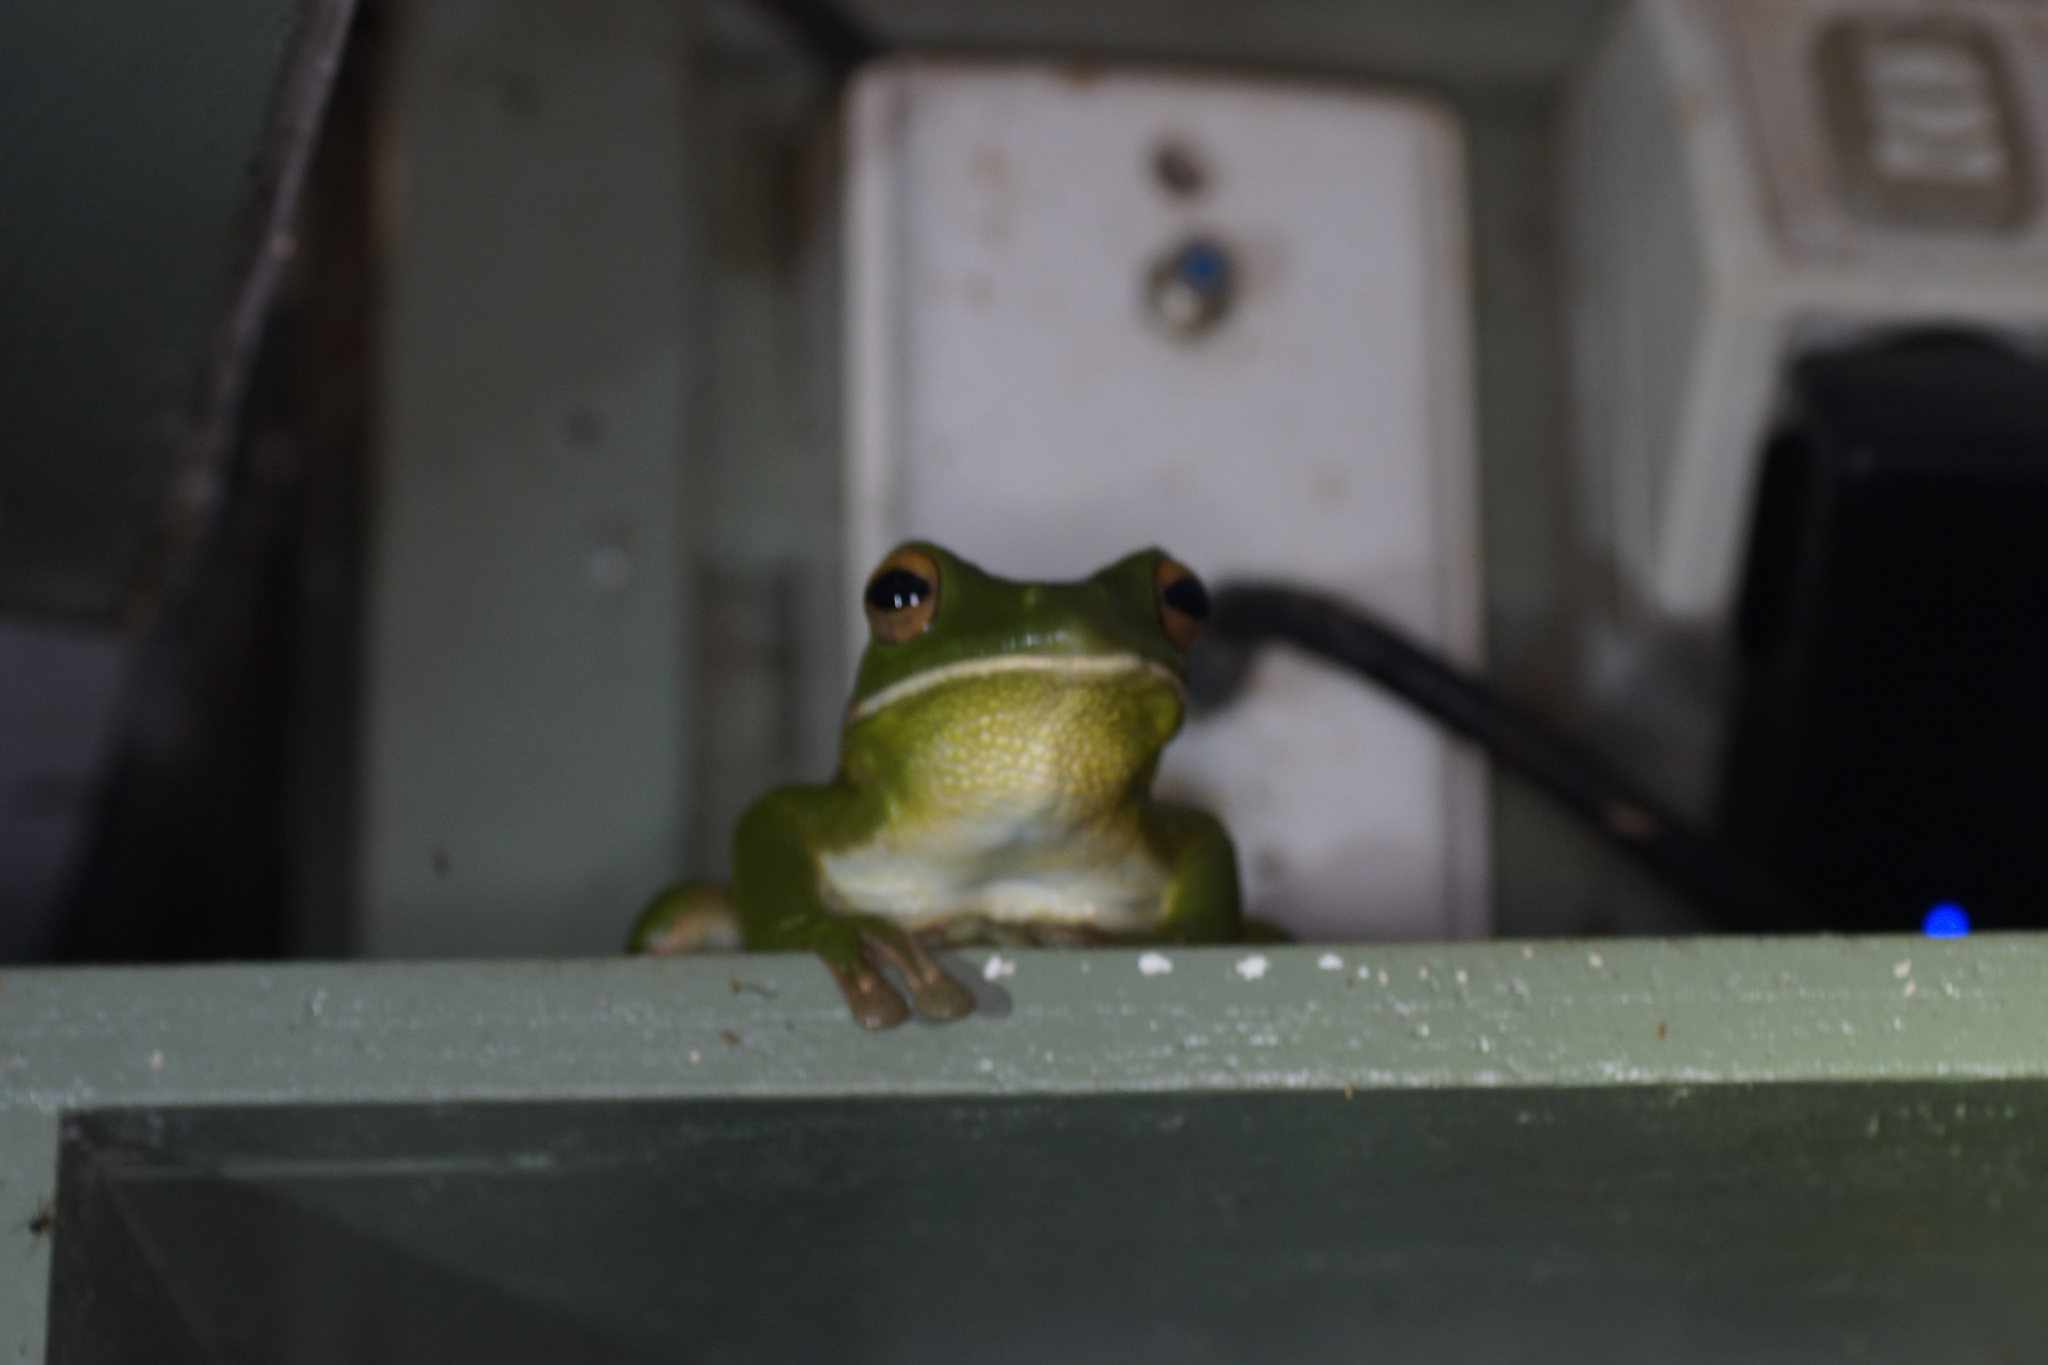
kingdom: Animalia
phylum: Chordata
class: Amphibia
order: Anura
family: Pelodryadidae
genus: Nyctimystes
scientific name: Nyctimystes infrafrenatus
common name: Australian giant treefrog
